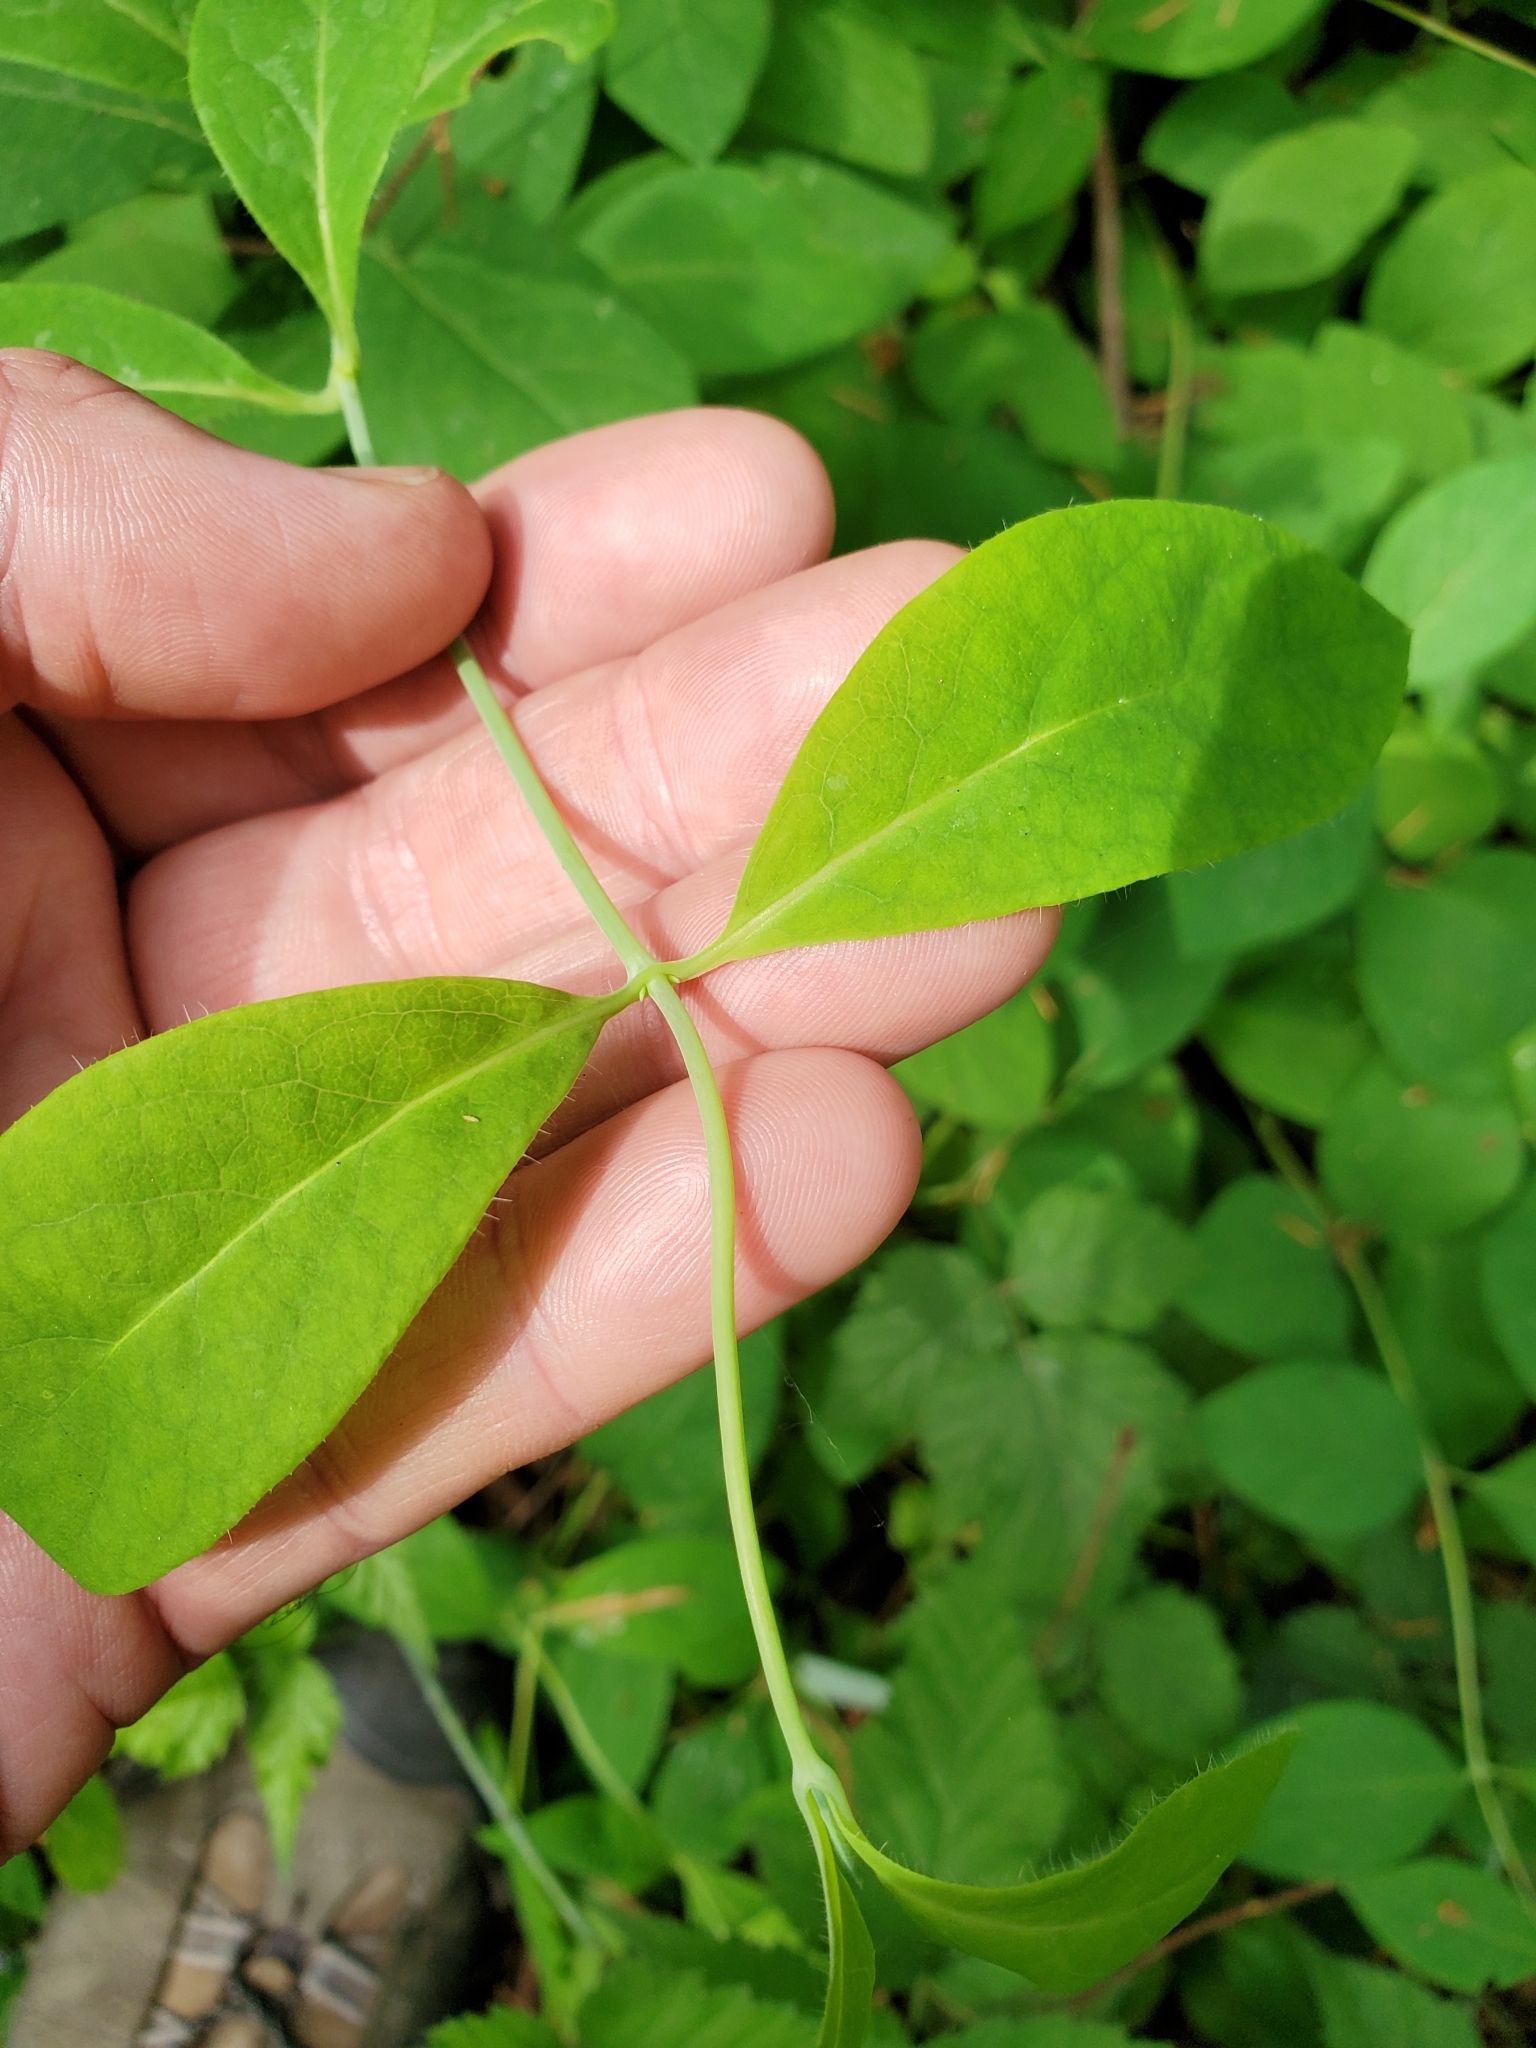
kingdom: Plantae
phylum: Tracheophyta
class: Magnoliopsida
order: Dipsacales
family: Caprifoliaceae
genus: Lonicera
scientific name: Lonicera ciliosa
